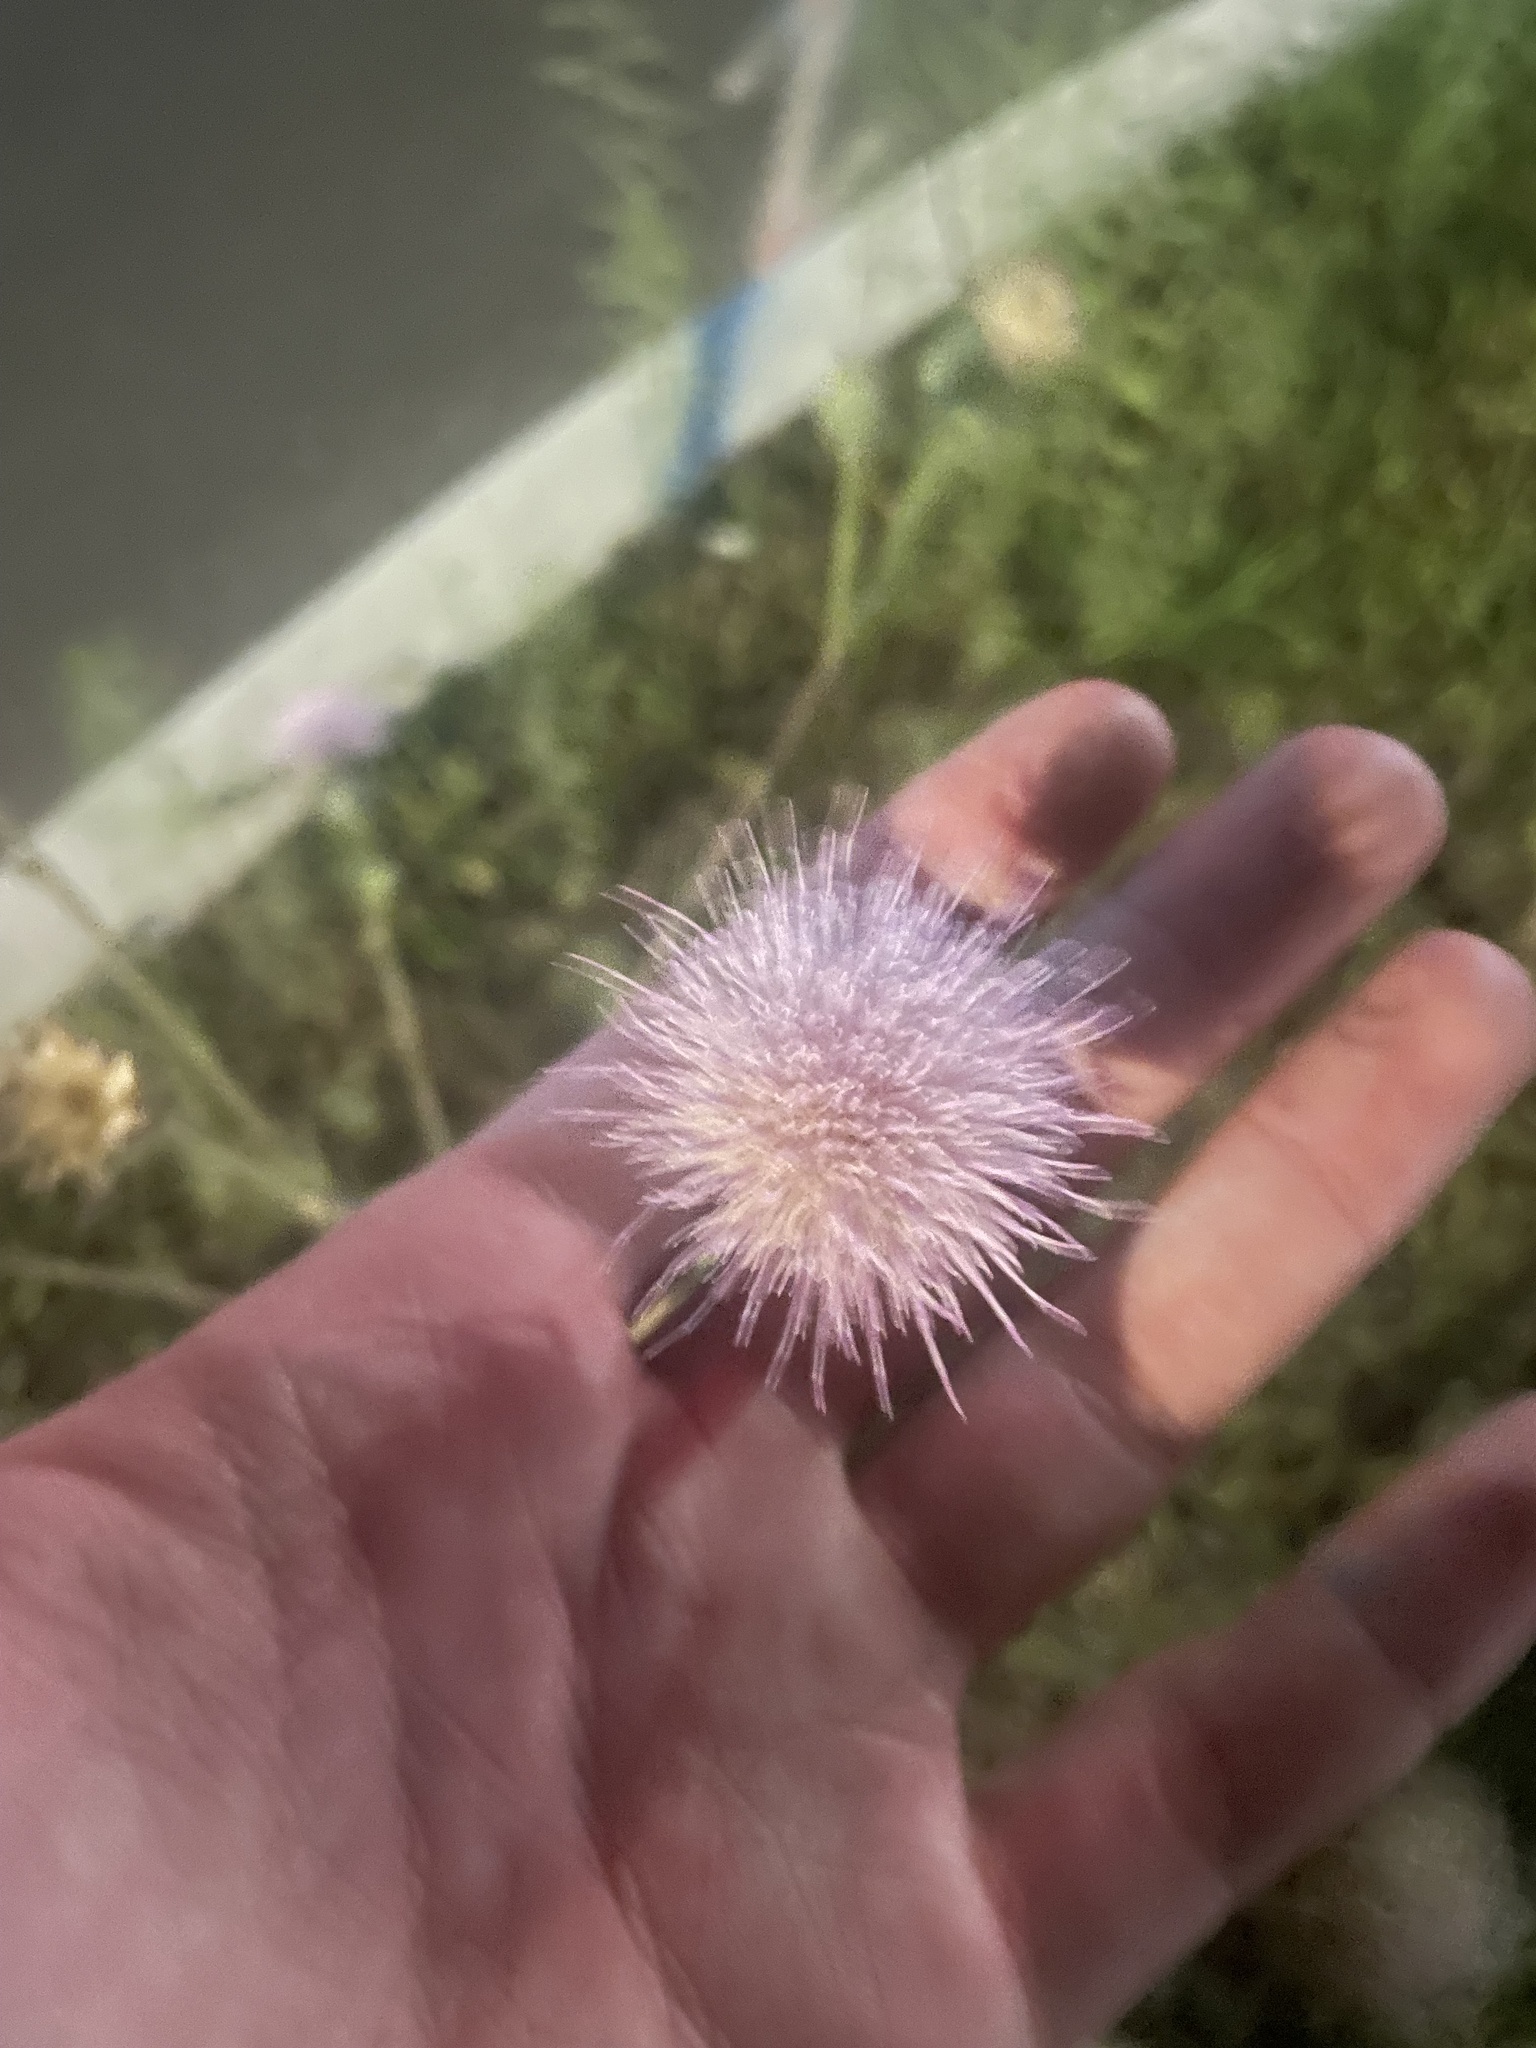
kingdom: Plantae
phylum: Tracheophyta
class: Magnoliopsida
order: Asterales
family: Asteraceae
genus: Cirsium
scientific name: Cirsium nuttalii
